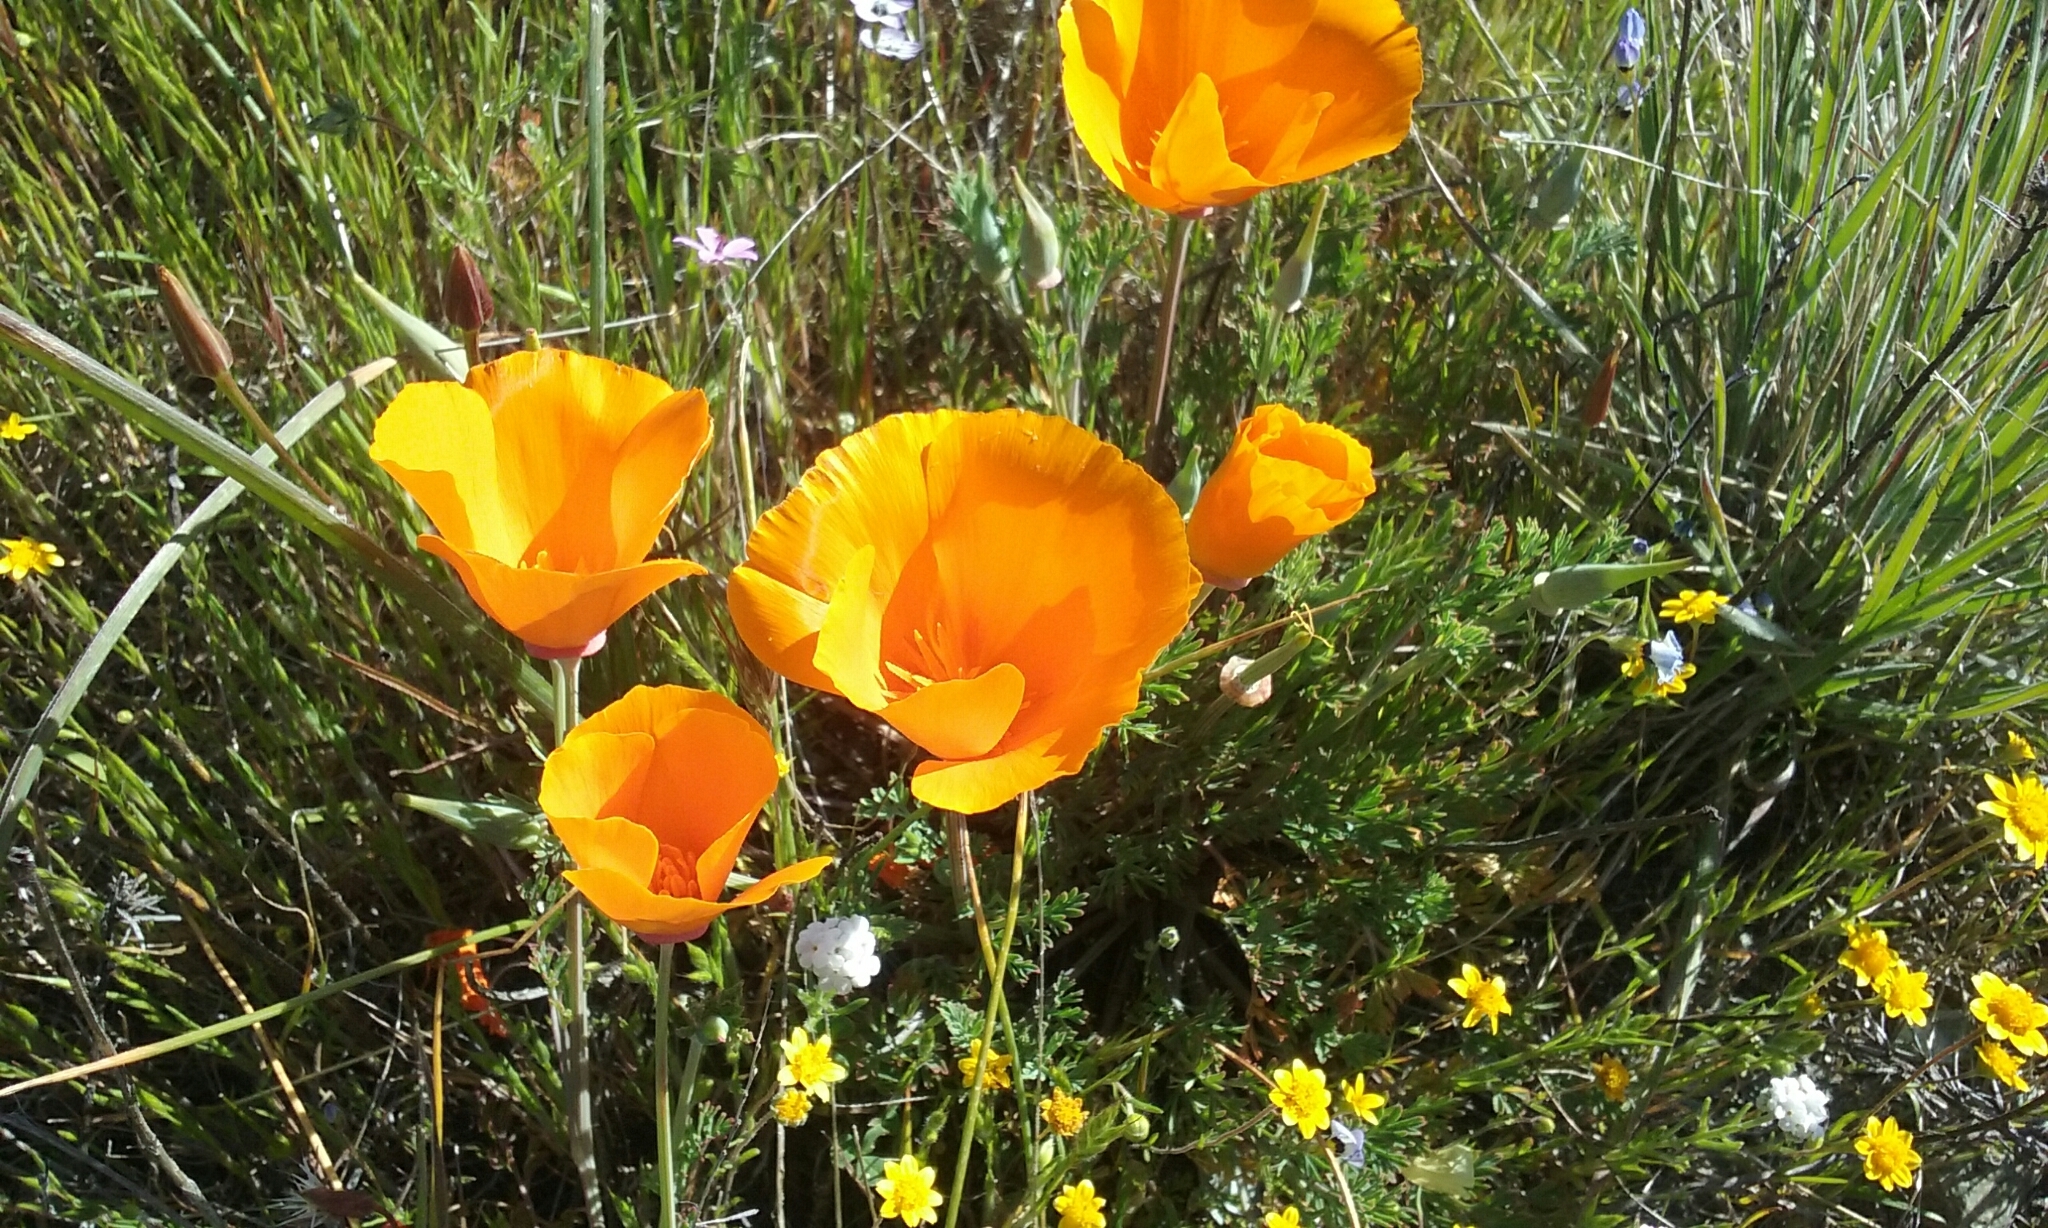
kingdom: Plantae
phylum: Tracheophyta
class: Magnoliopsida
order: Ranunculales
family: Papaveraceae
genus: Eschscholzia
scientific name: Eschscholzia californica
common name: California poppy
